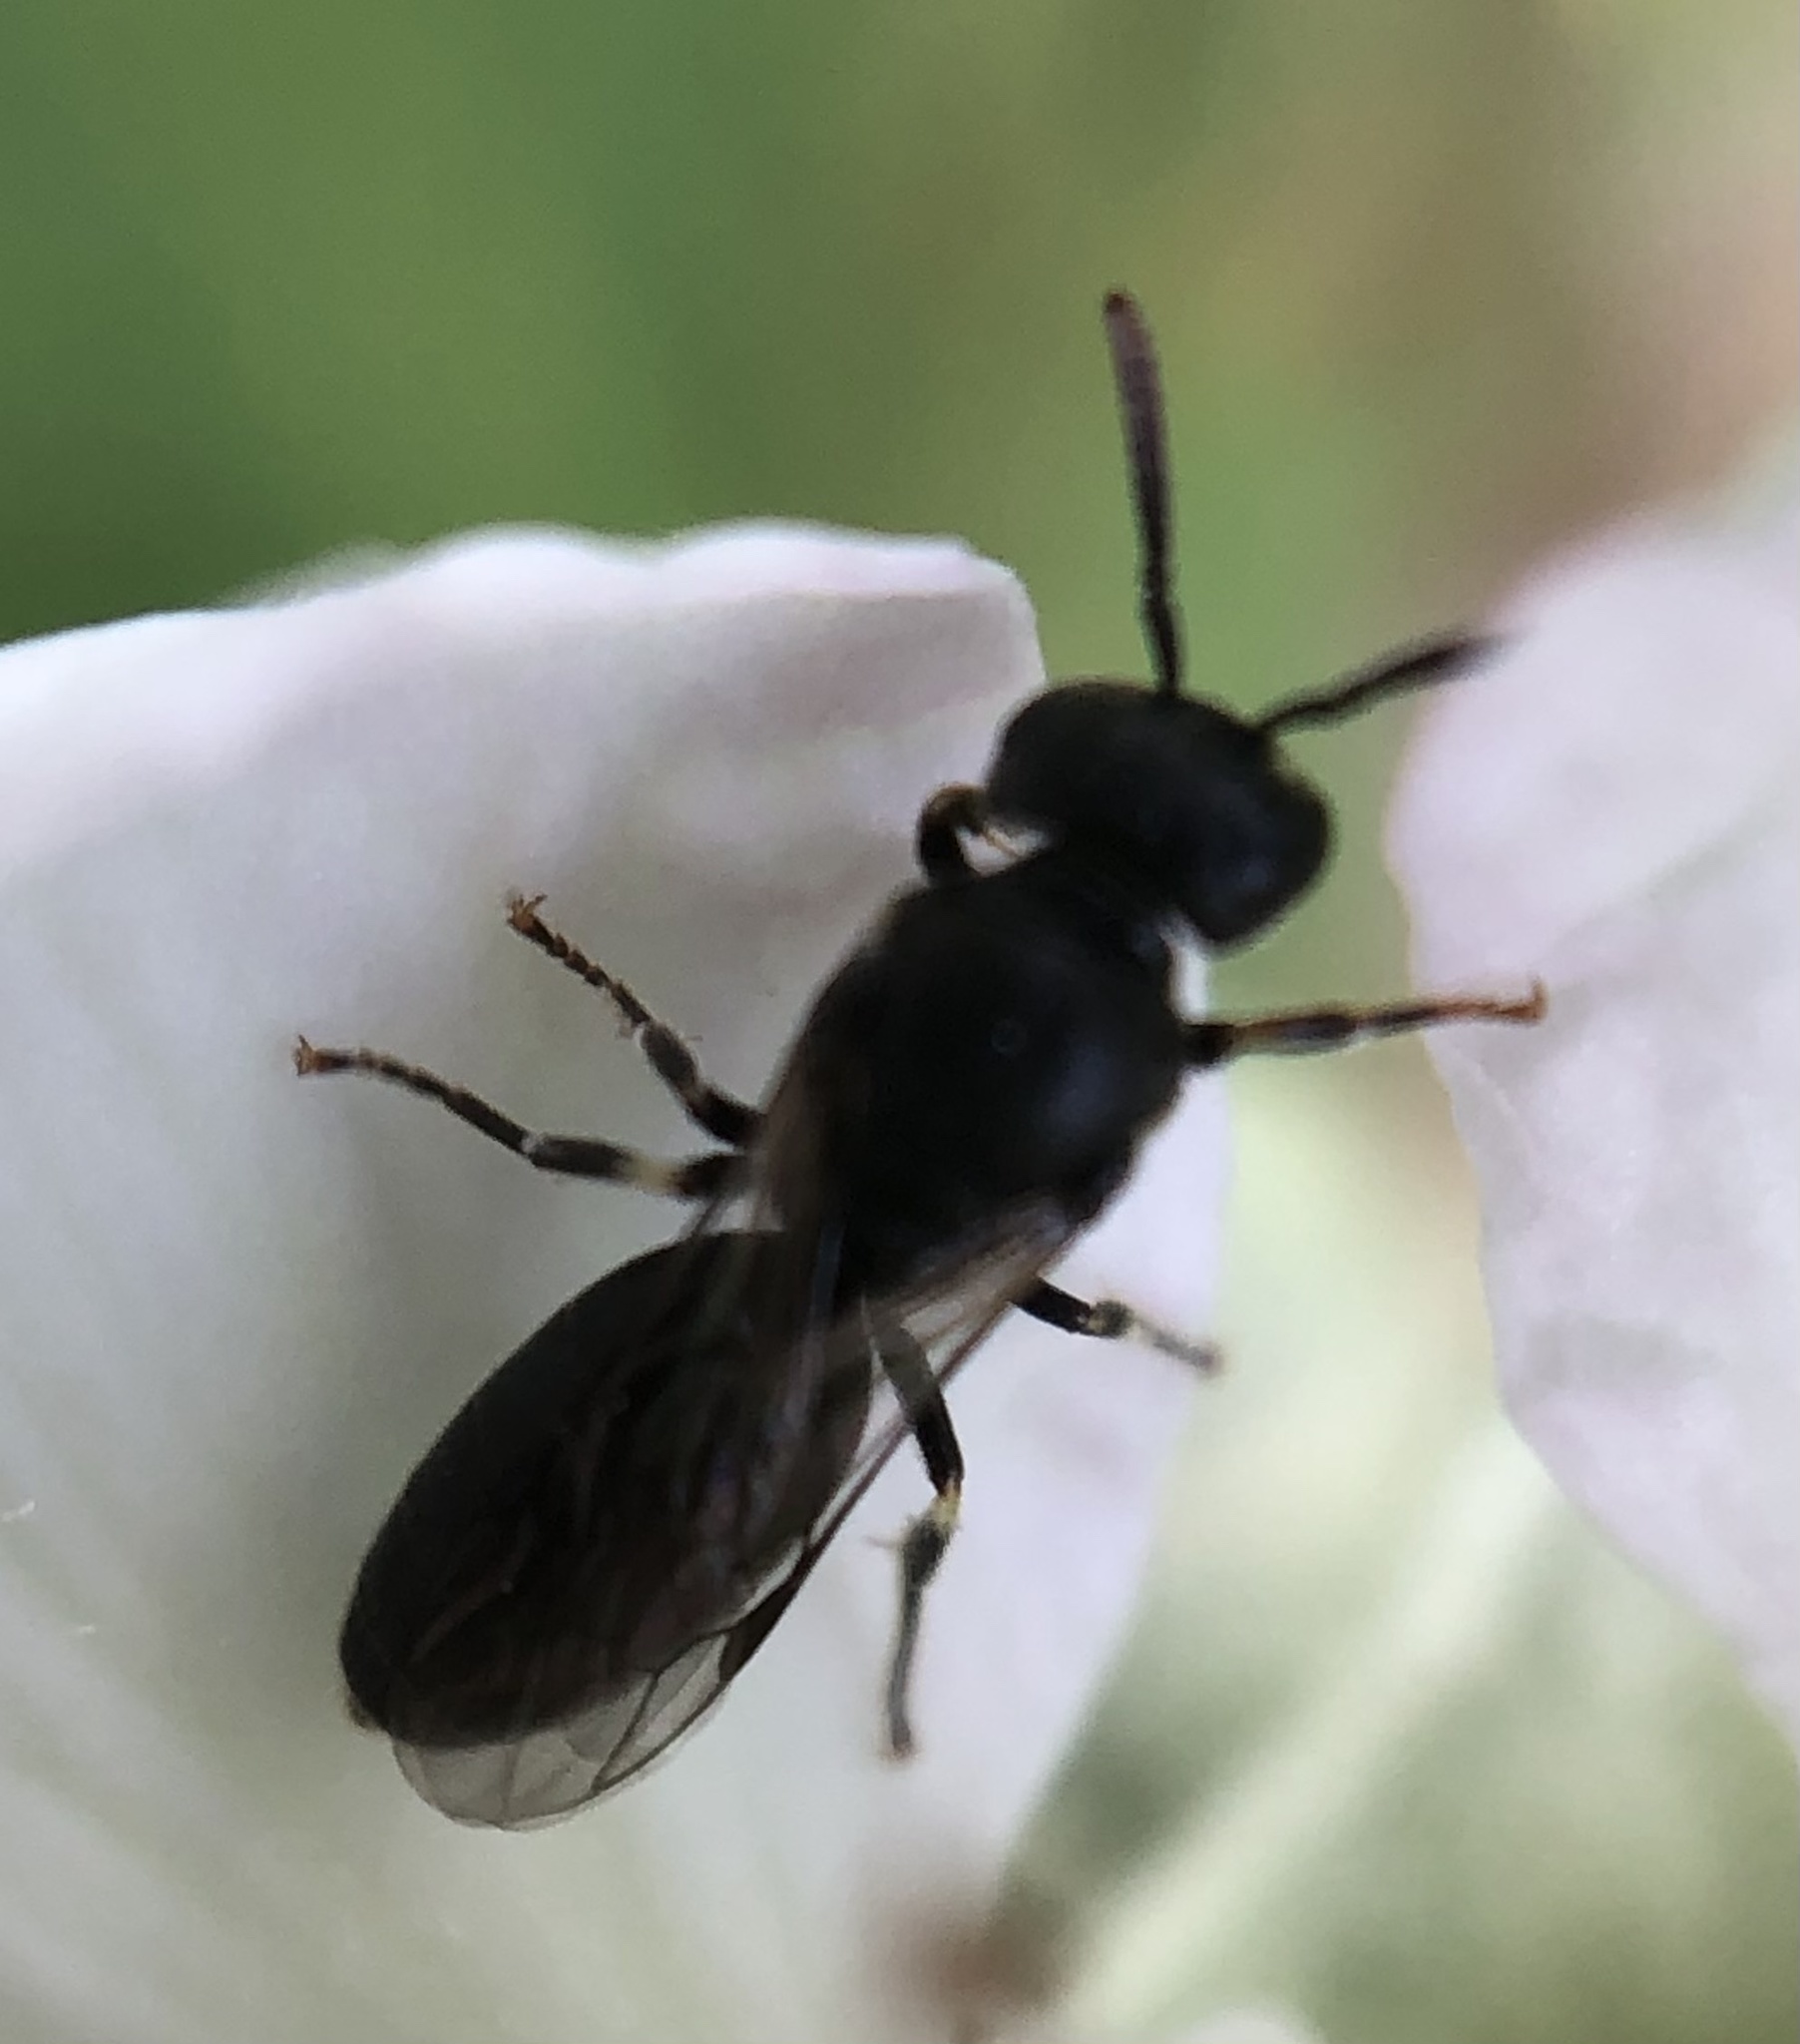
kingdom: Animalia
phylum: Arthropoda
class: Insecta
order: Hymenoptera
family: Colletidae
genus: Hylaeus
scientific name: Hylaeus mesillae
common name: Mesilla masked bee
